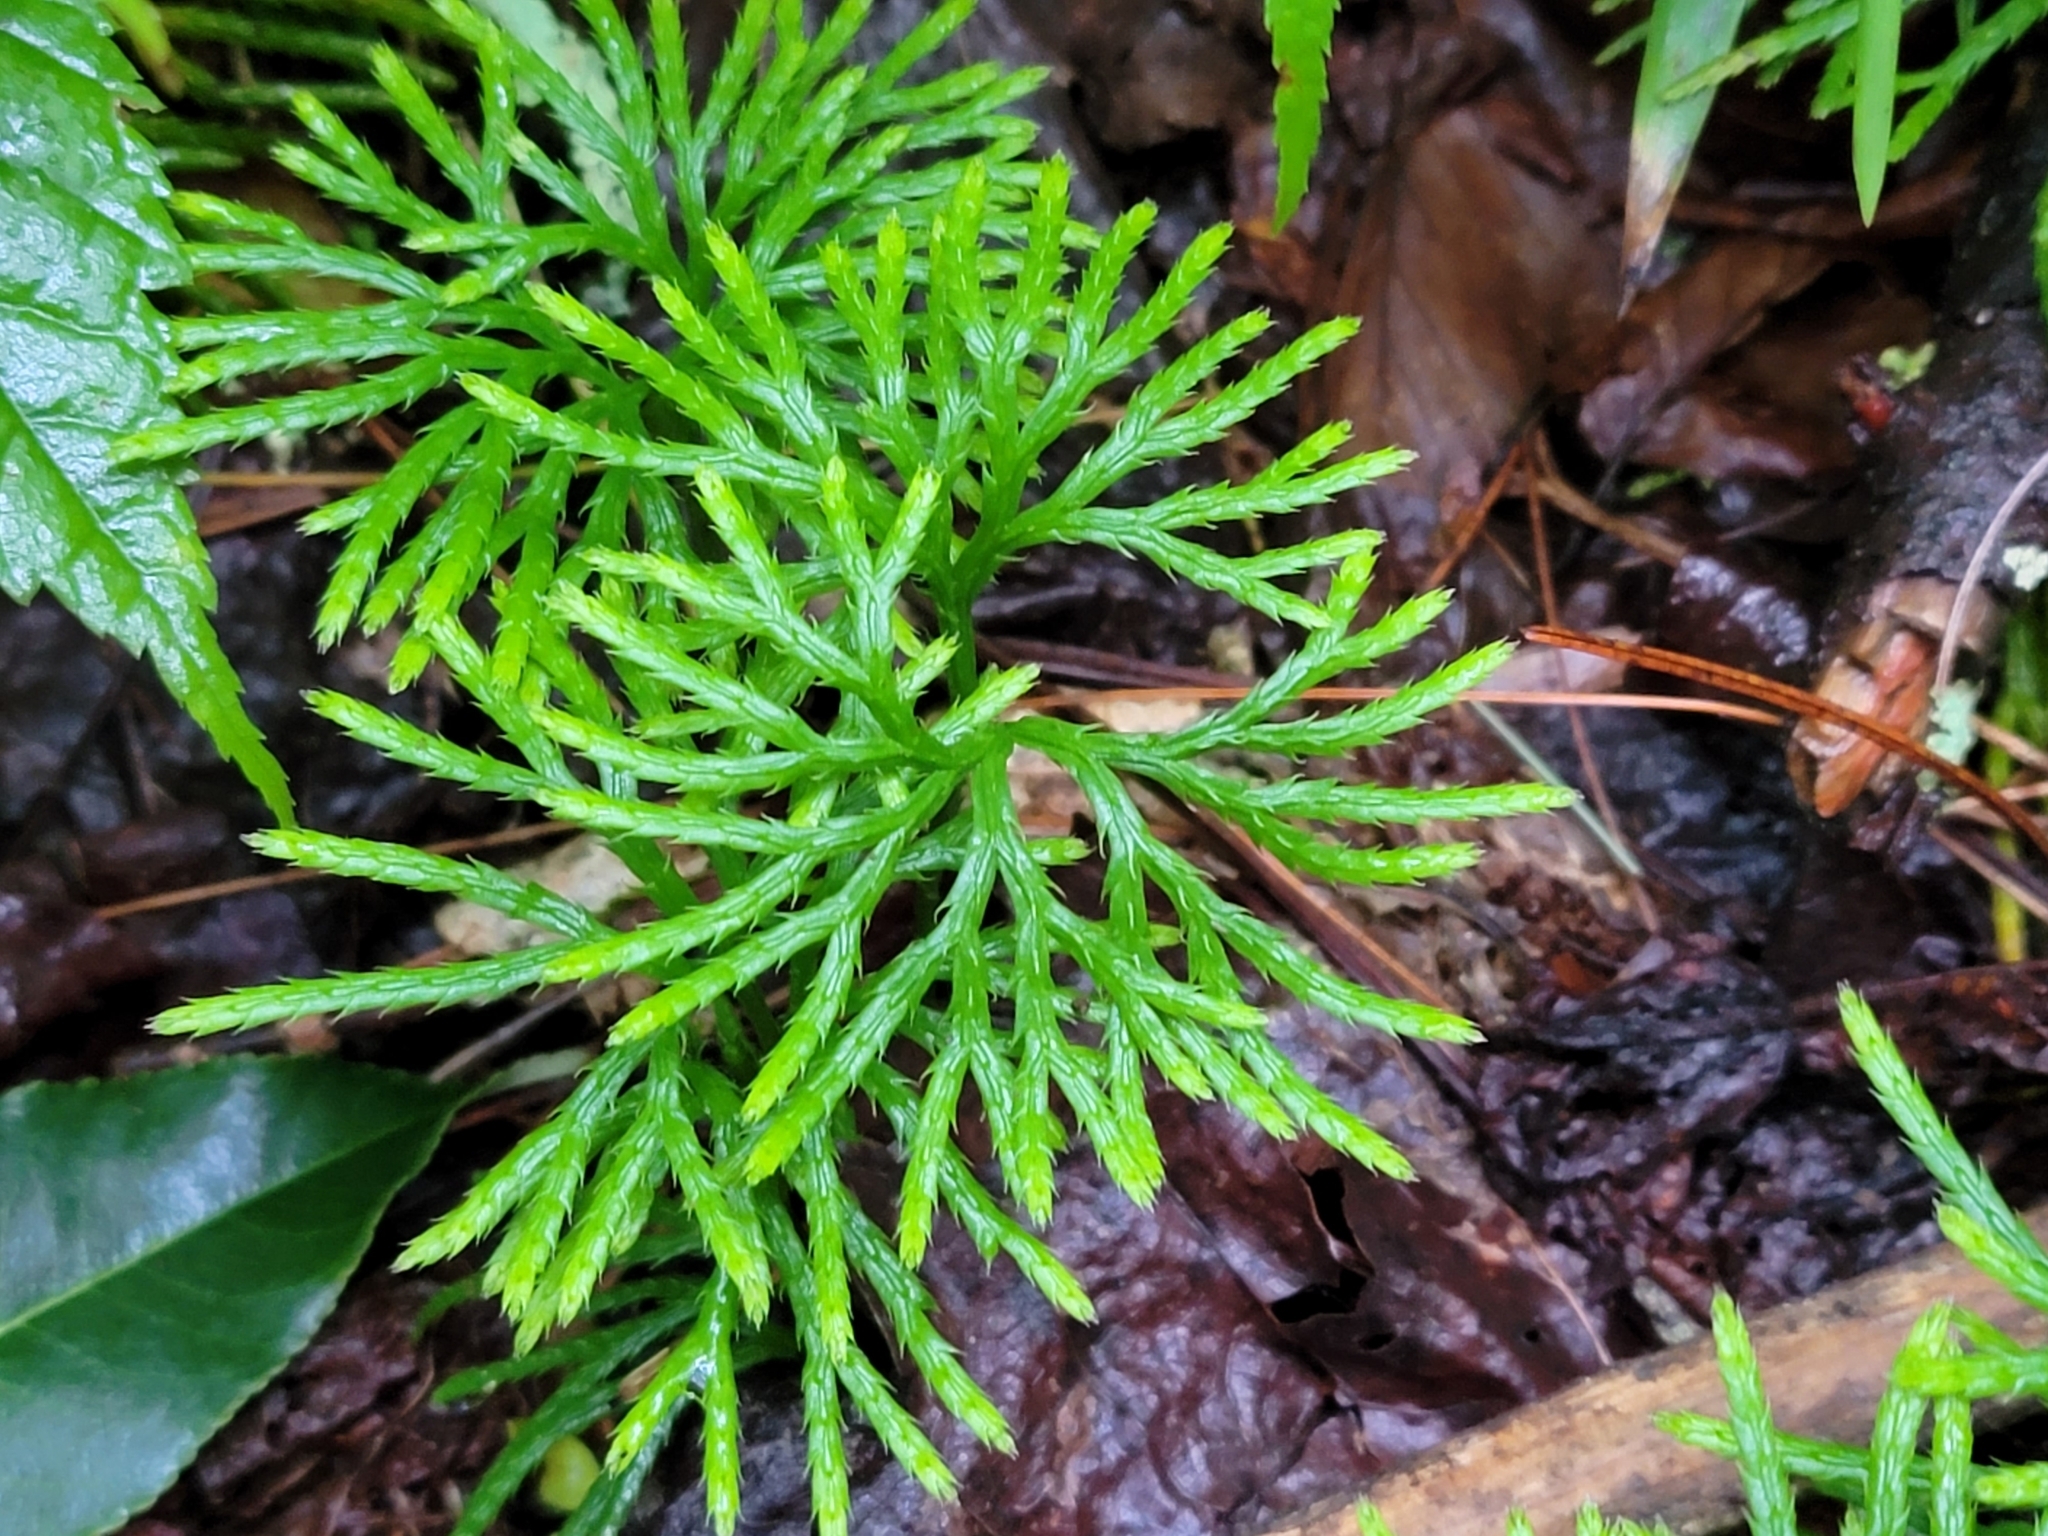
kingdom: Plantae
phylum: Tracheophyta
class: Lycopodiopsida
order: Lycopodiales
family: Lycopodiaceae
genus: Diphasiastrum
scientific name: Diphasiastrum digitatum
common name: Southern running-pine
